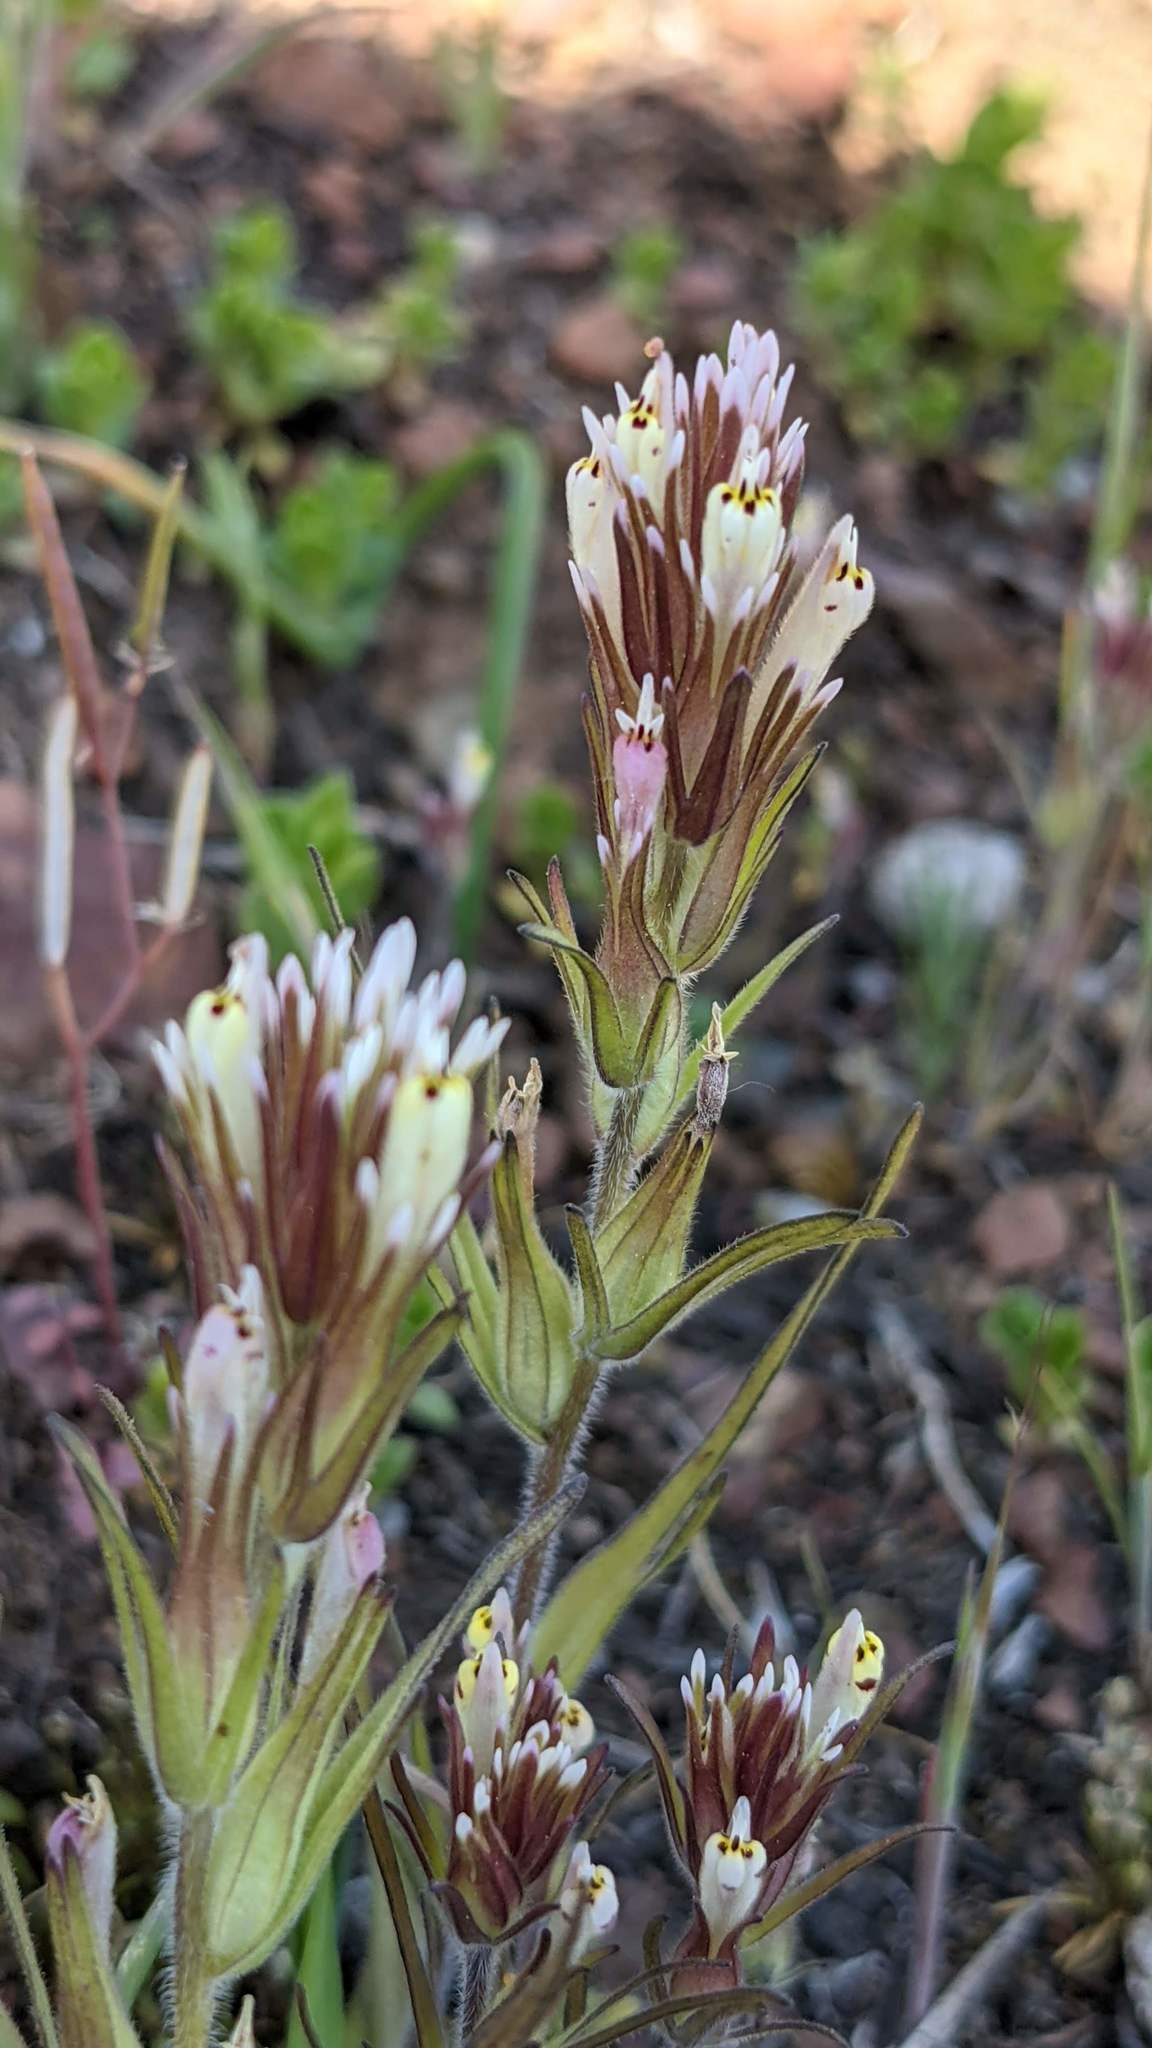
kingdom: Plantae
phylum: Tracheophyta
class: Magnoliopsida
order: Lamiales
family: Orobanchaceae
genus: Castilleja
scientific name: Castilleja attenuata
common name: Valley tassels
